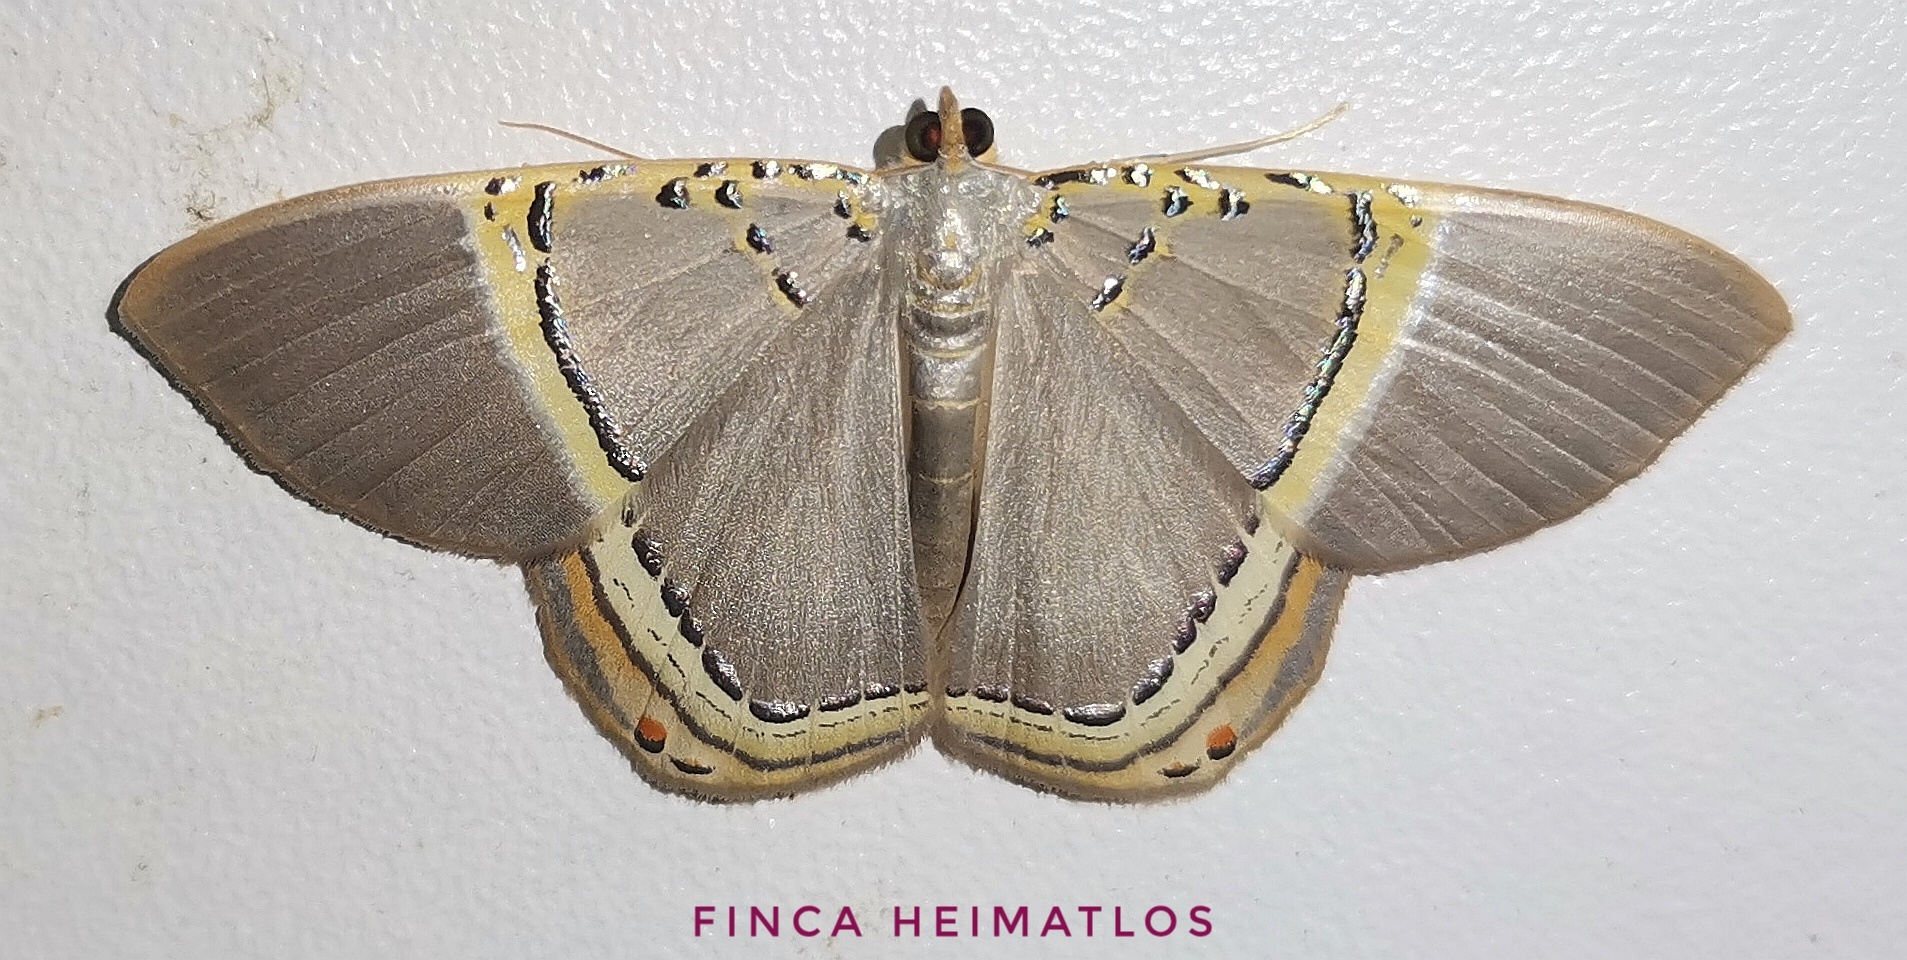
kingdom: Animalia
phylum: Arthropoda
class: Insecta
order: Lepidoptera
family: Geometridae
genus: Phrygionis
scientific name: Phrygionis privignaria
